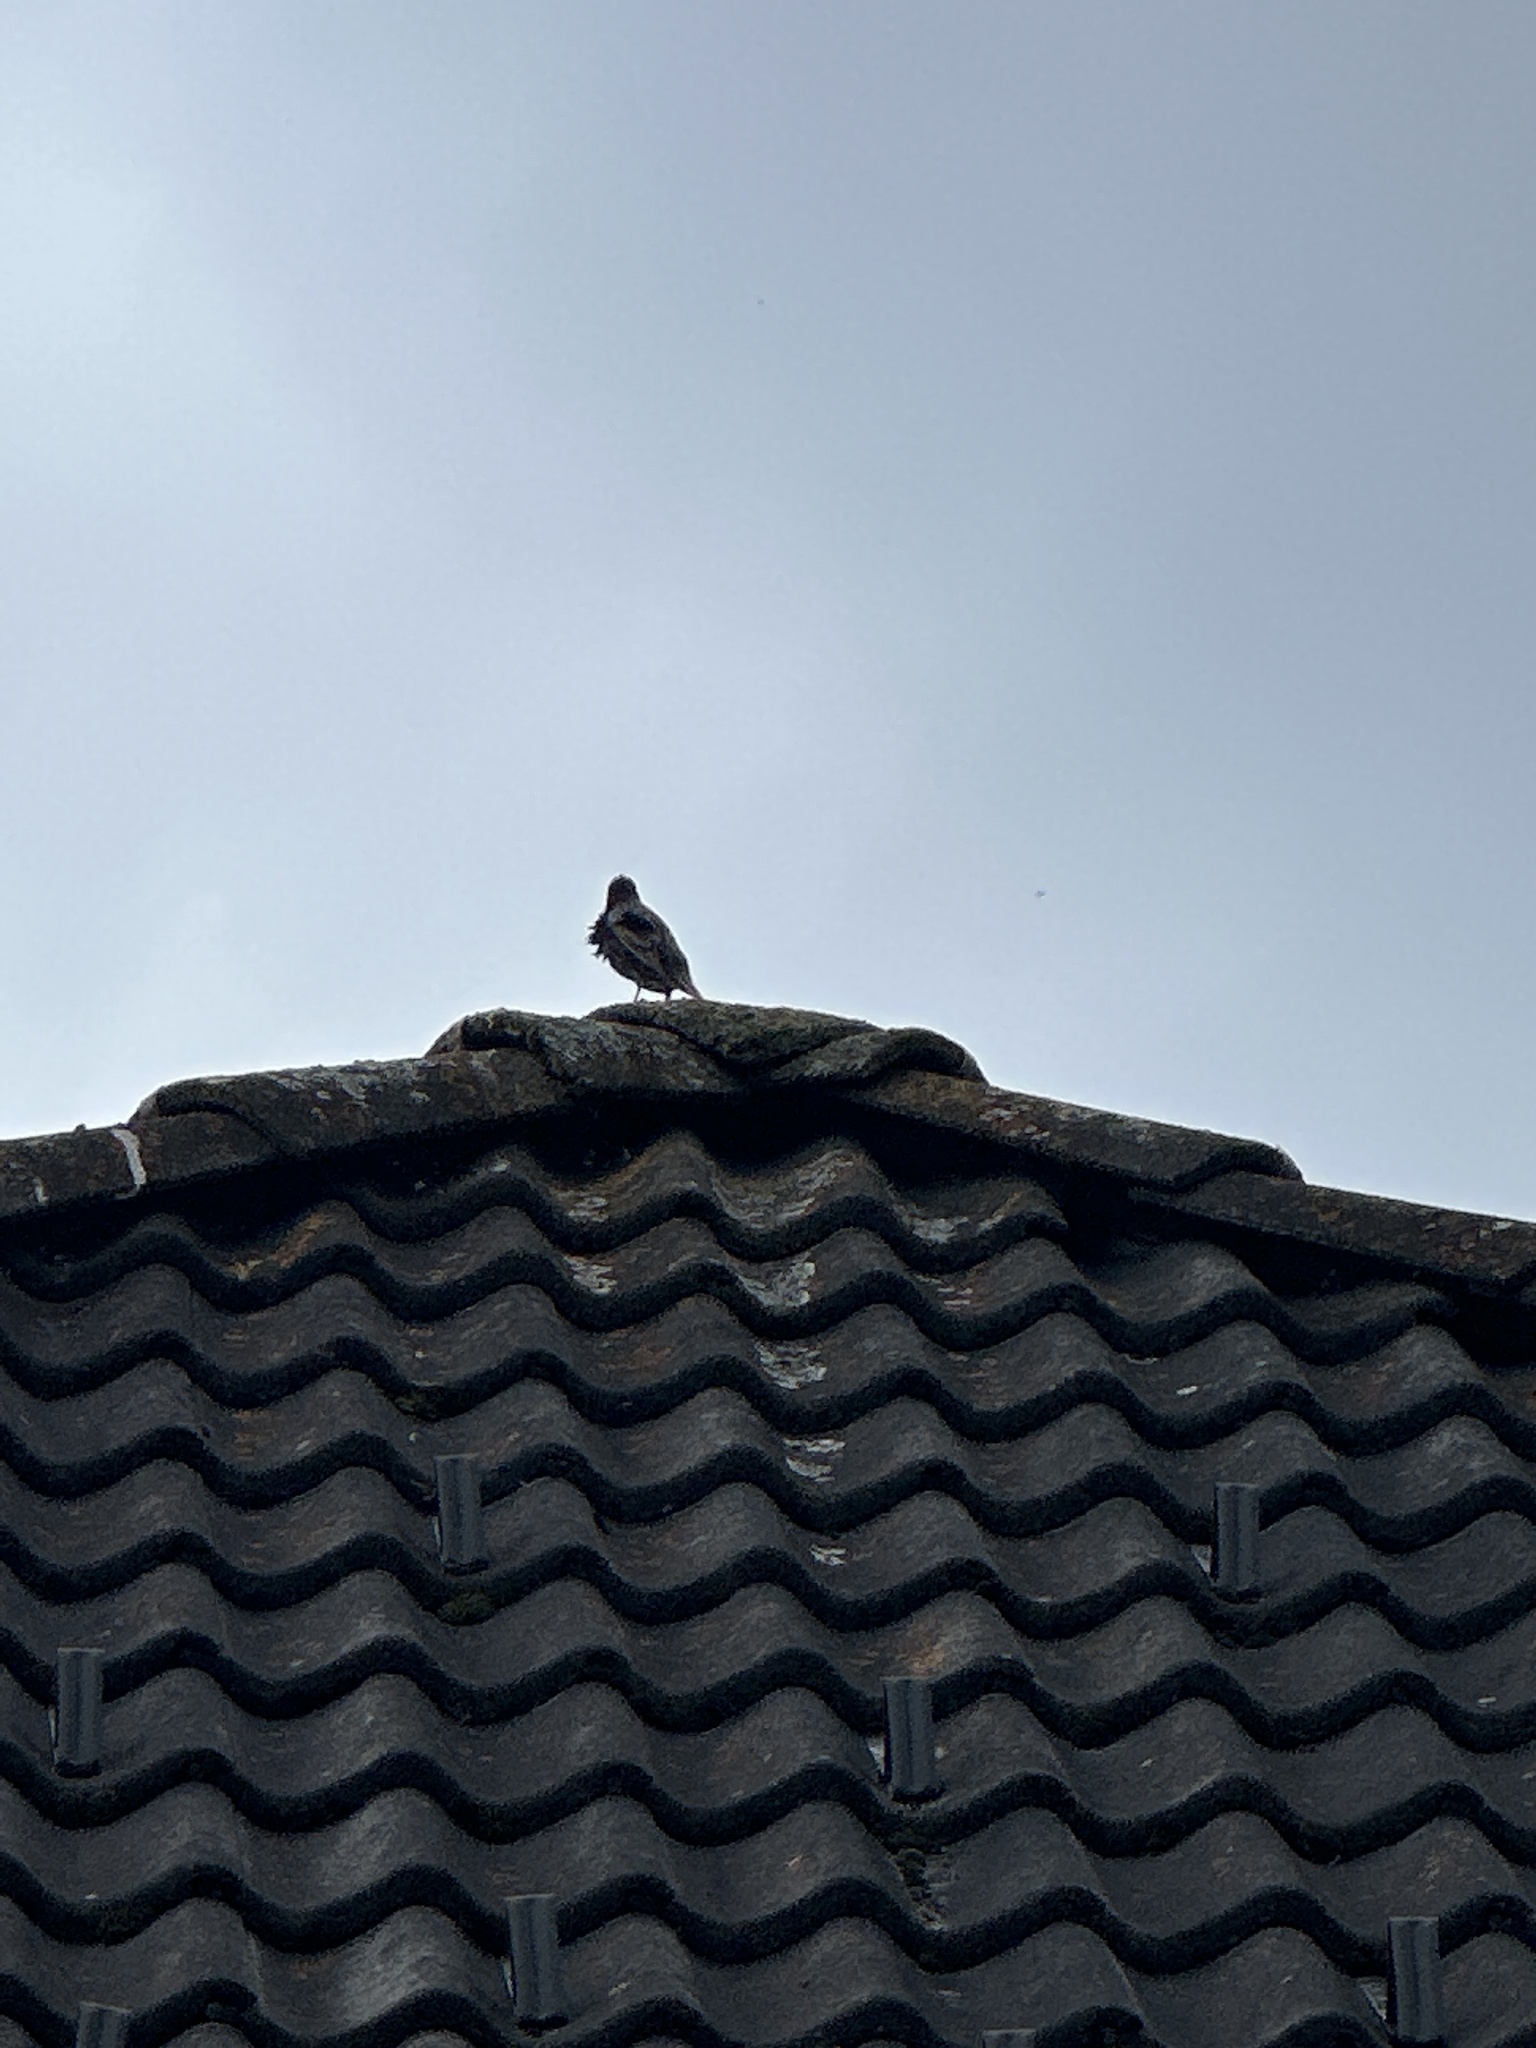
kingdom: Animalia
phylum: Chordata
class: Aves
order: Passeriformes
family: Sturnidae
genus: Sturnus
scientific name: Sturnus vulgaris
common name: Common starling
